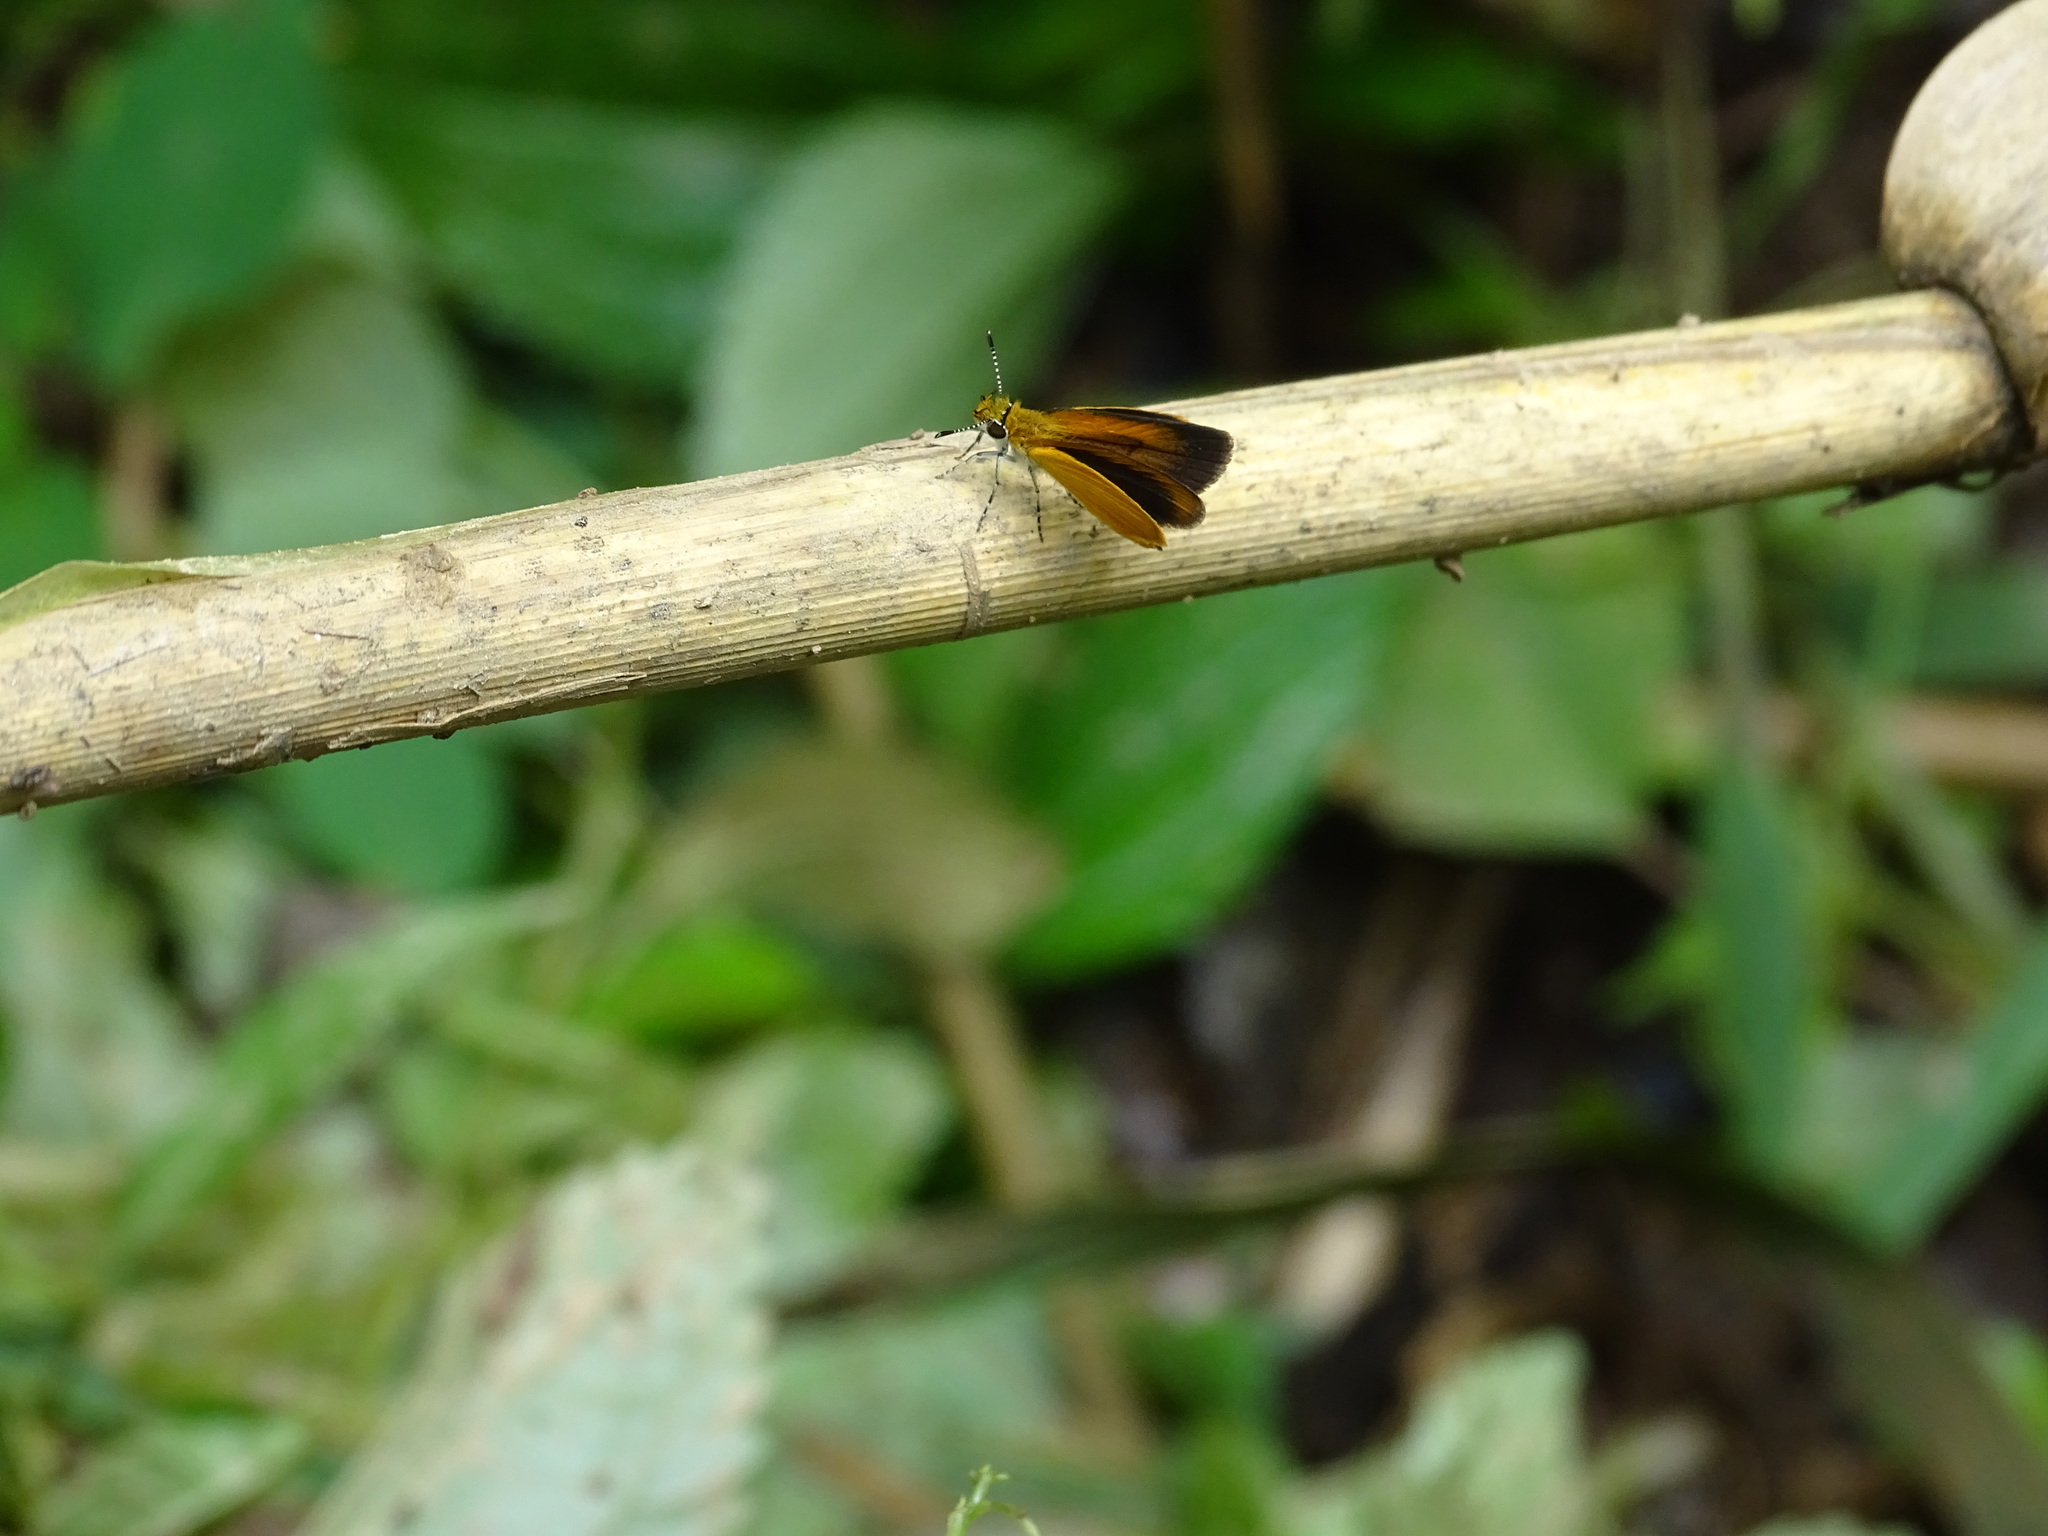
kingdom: Animalia
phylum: Arthropoda
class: Insecta
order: Lepidoptera
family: Hesperiidae
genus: Ancyloxypha
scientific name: Ancyloxypha numitor
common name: Least skipper
